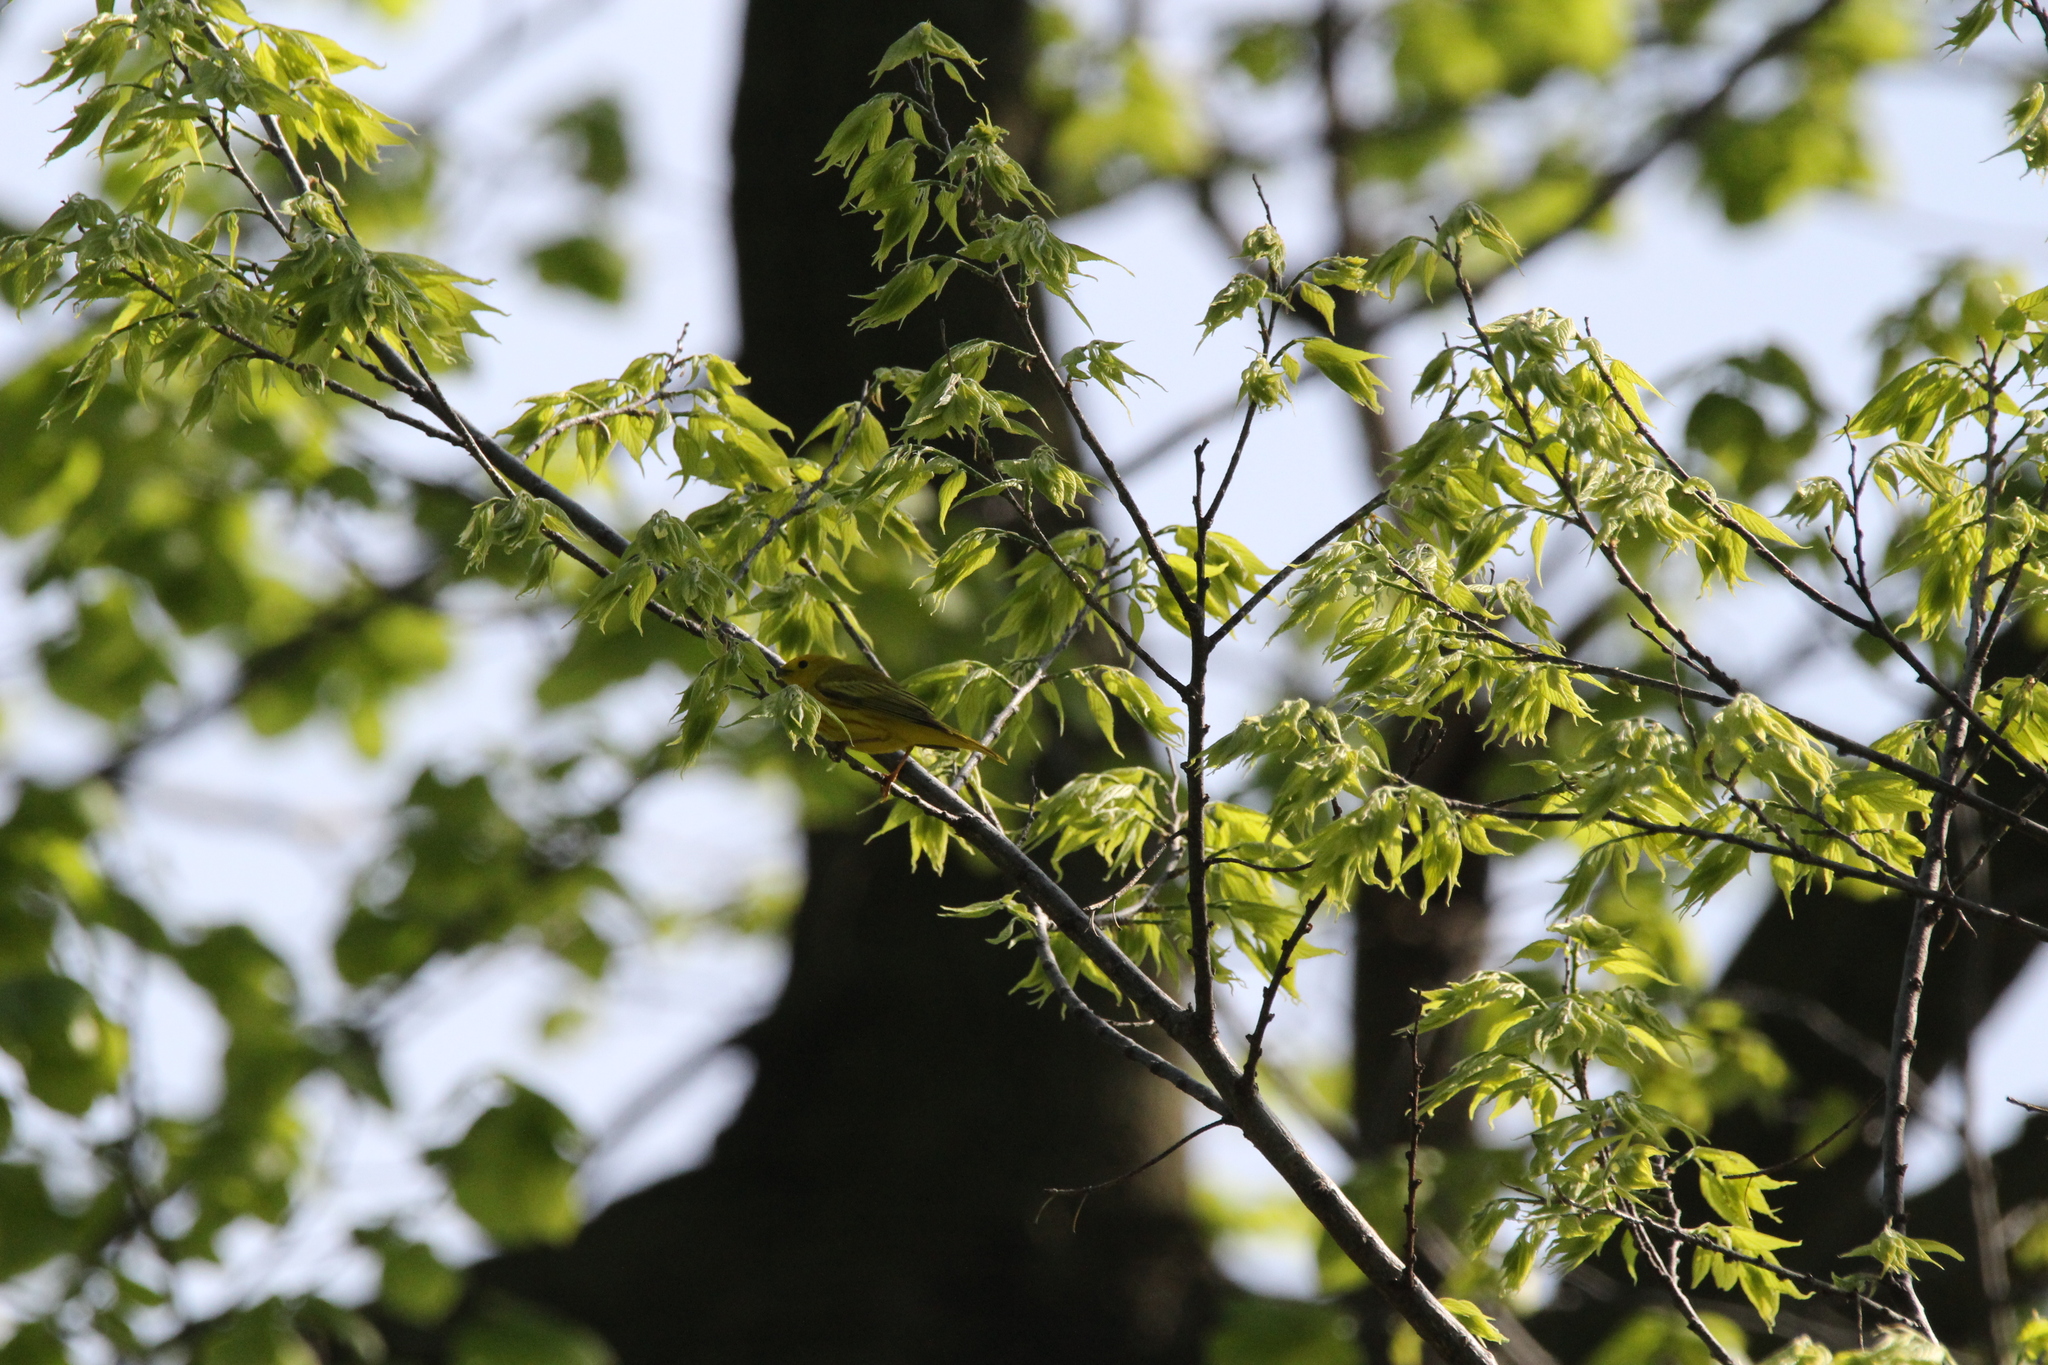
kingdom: Animalia
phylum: Chordata
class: Aves
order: Passeriformes
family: Parulidae
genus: Setophaga
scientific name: Setophaga petechia
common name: Yellow warbler
